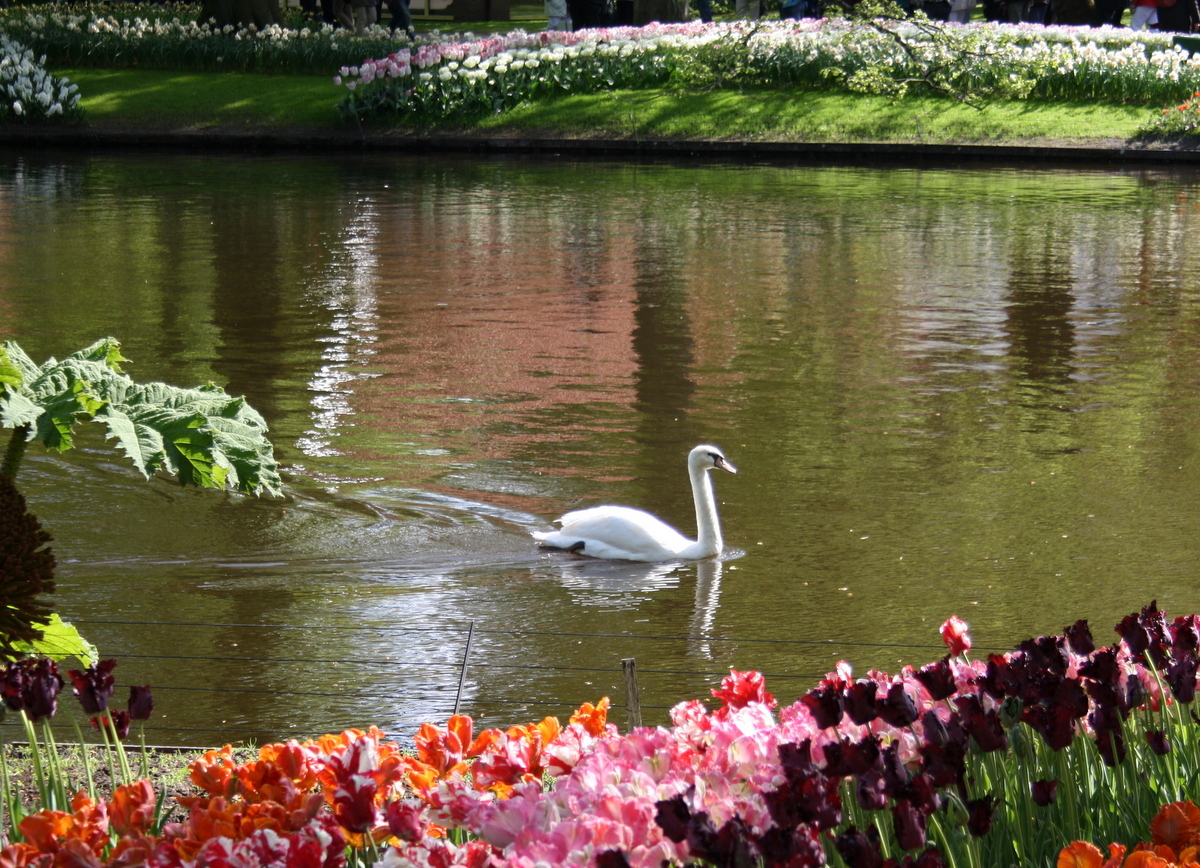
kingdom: Animalia
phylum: Chordata
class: Aves
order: Anseriformes
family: Anatidae
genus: Cygnus
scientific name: Cygnus olor
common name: Mute swan
